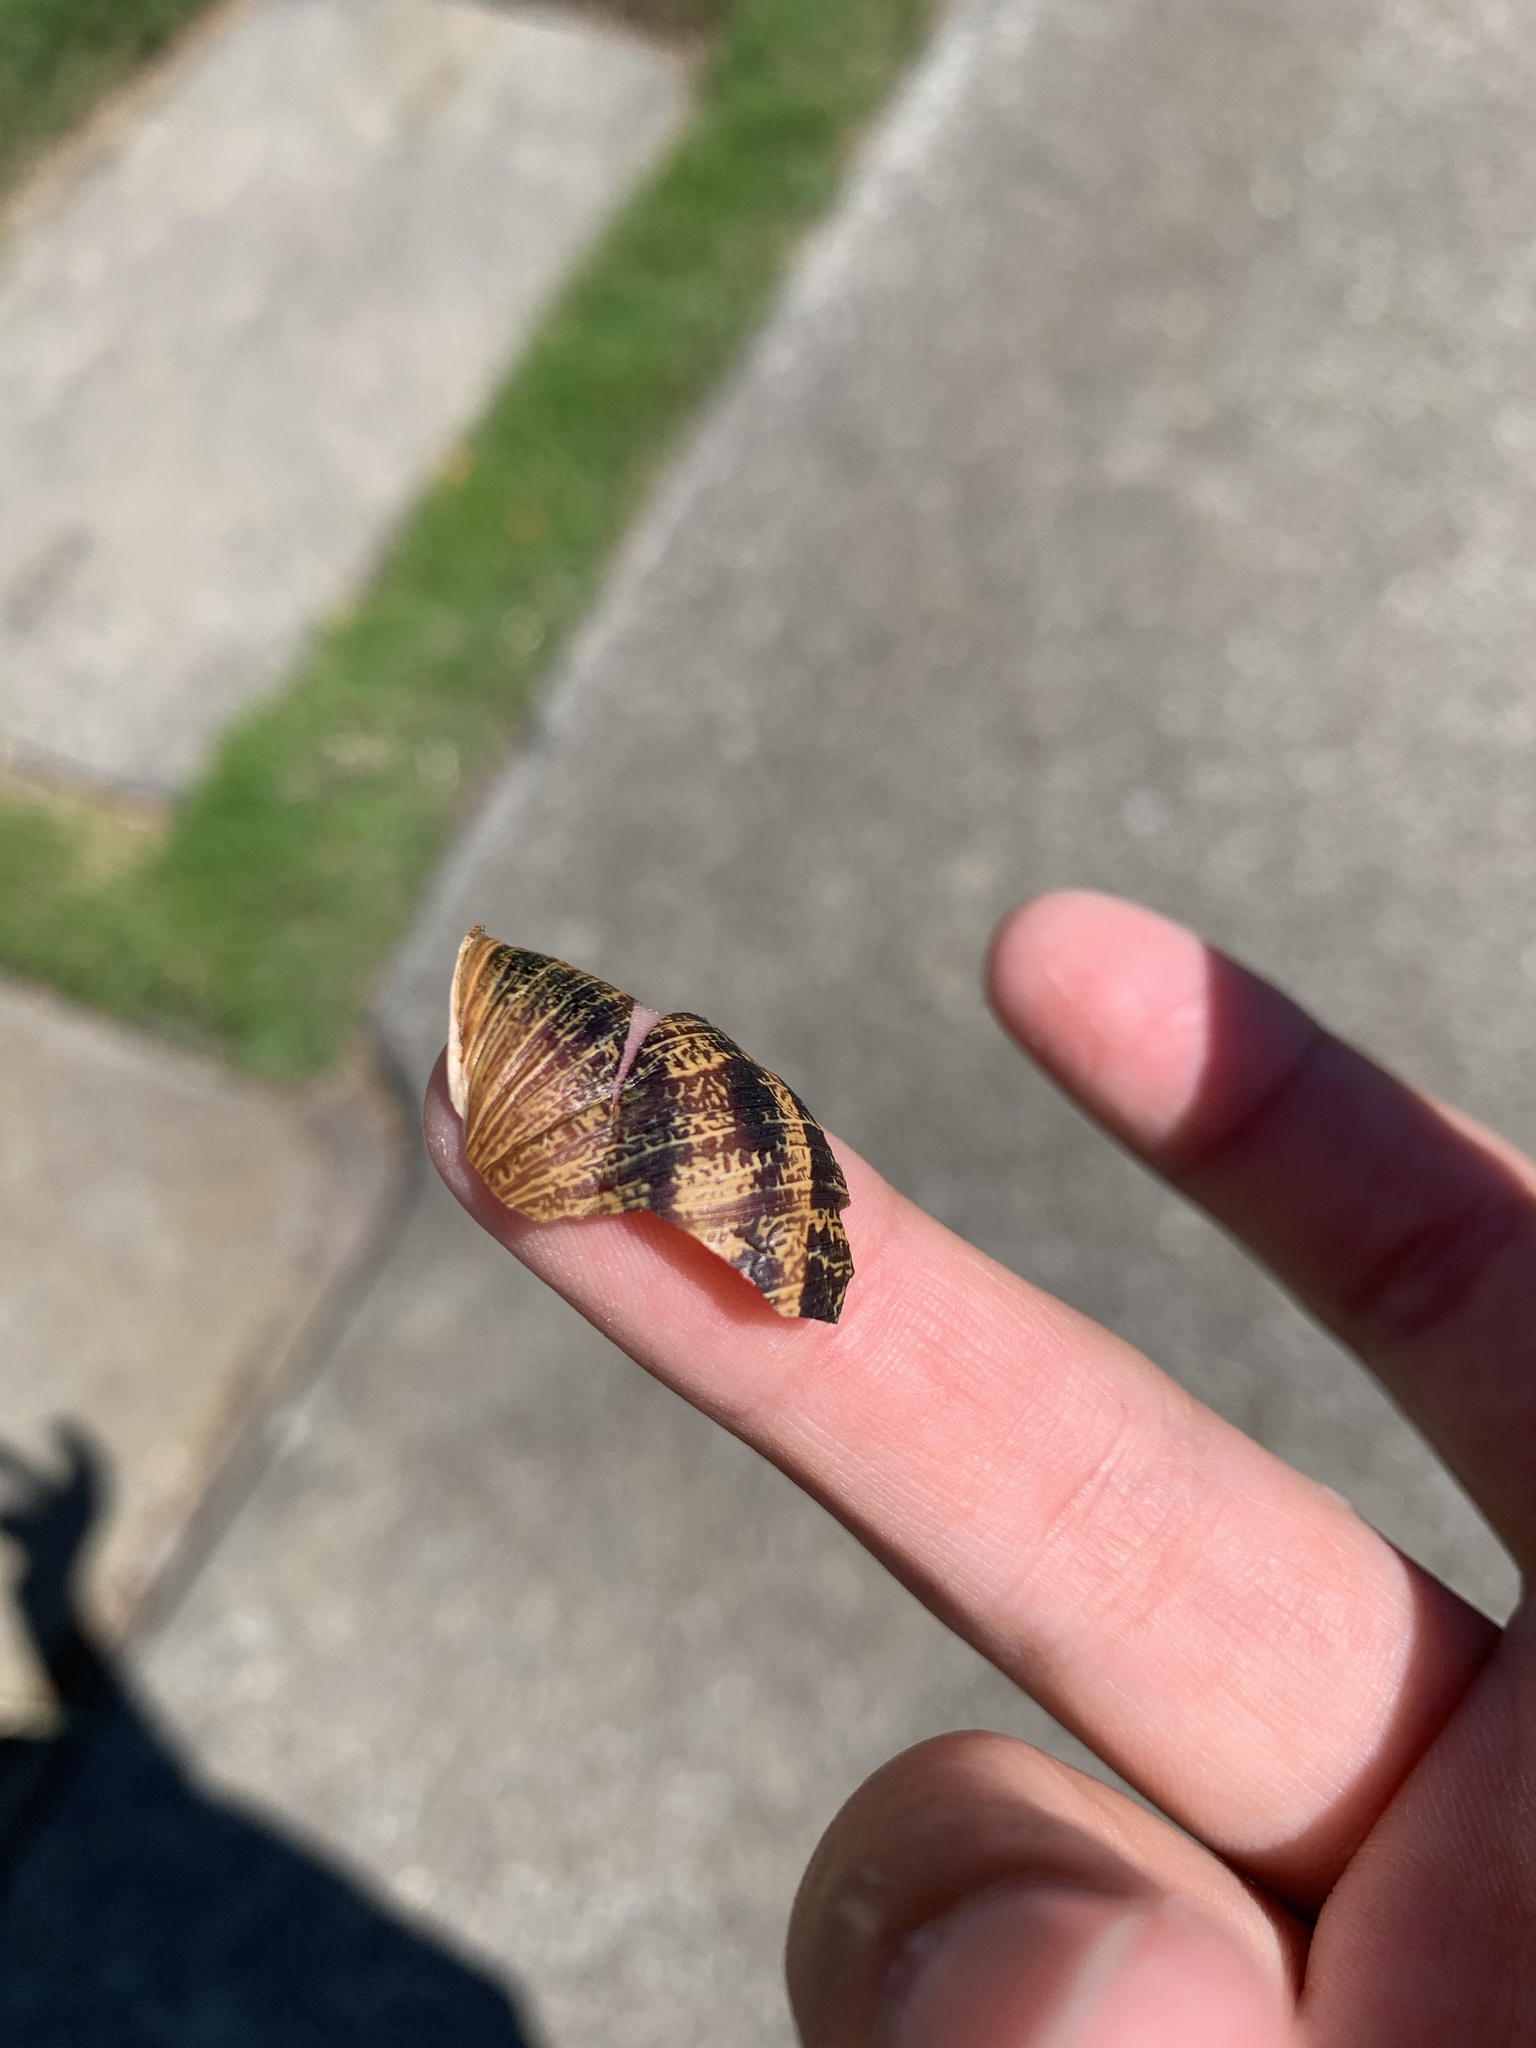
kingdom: Animalia
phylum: Mollusca
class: Gastropoda
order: Stylommatophora
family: Helicidae
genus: Cornu
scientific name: Cornu aspersum
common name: Brown garden snail
